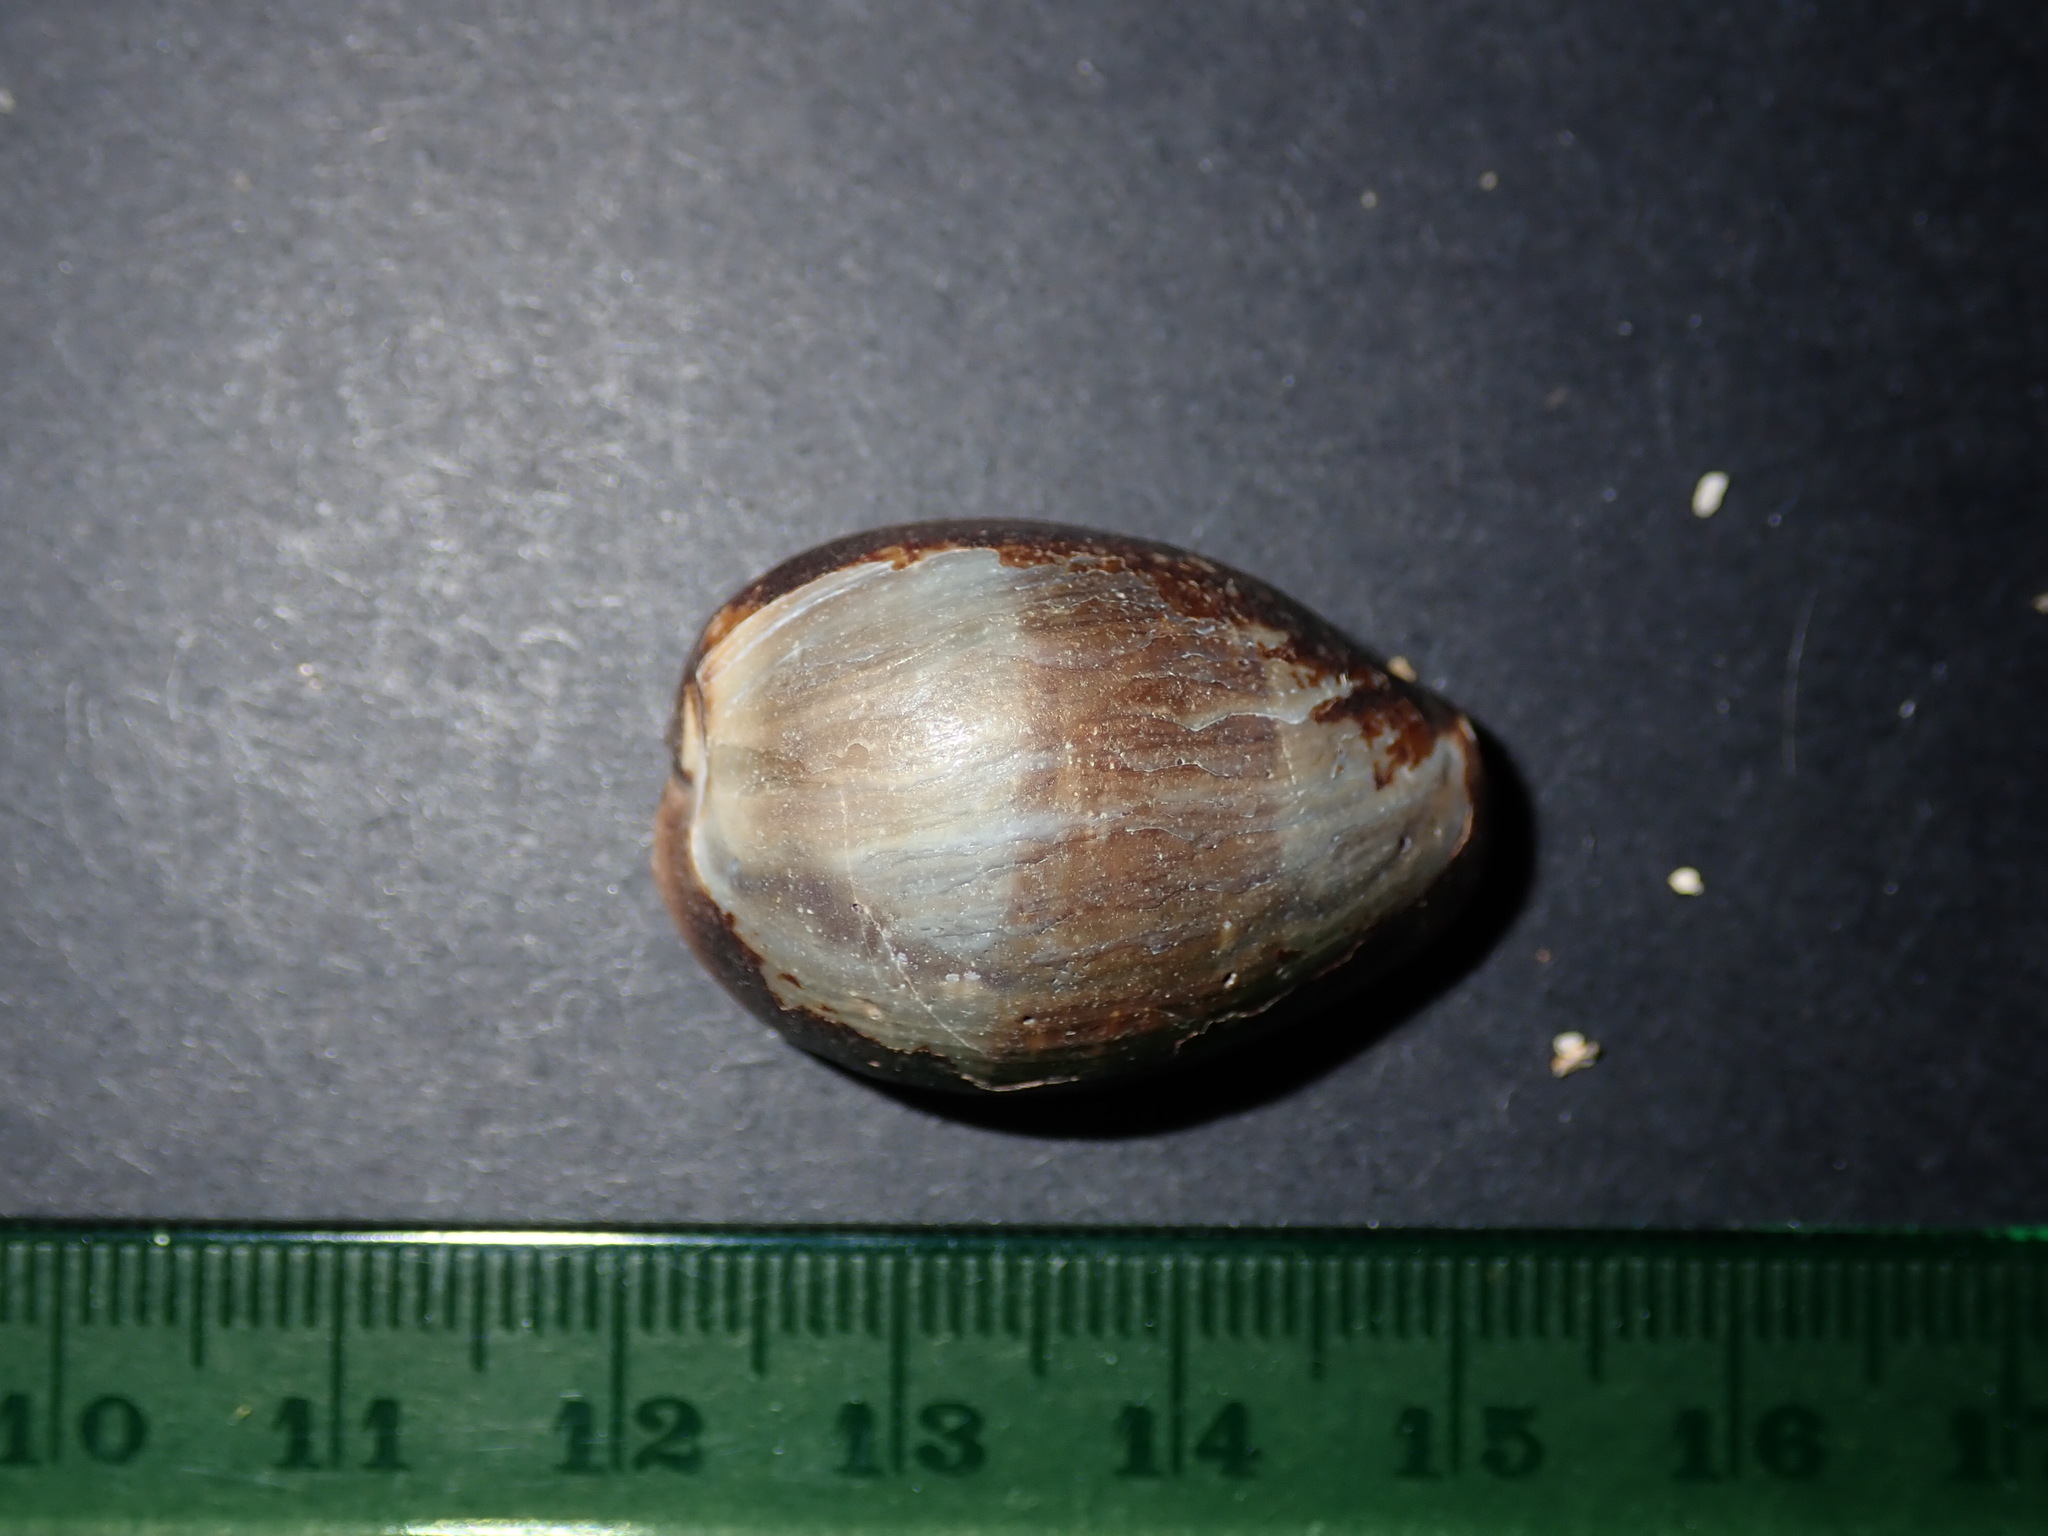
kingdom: Animalia
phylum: Mollusca
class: Gastropoda
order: Littorinimorpha
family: Cypraeidae
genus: Monetaria
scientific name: Monetaria caputserpentis
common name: Serpent's head cowrie
